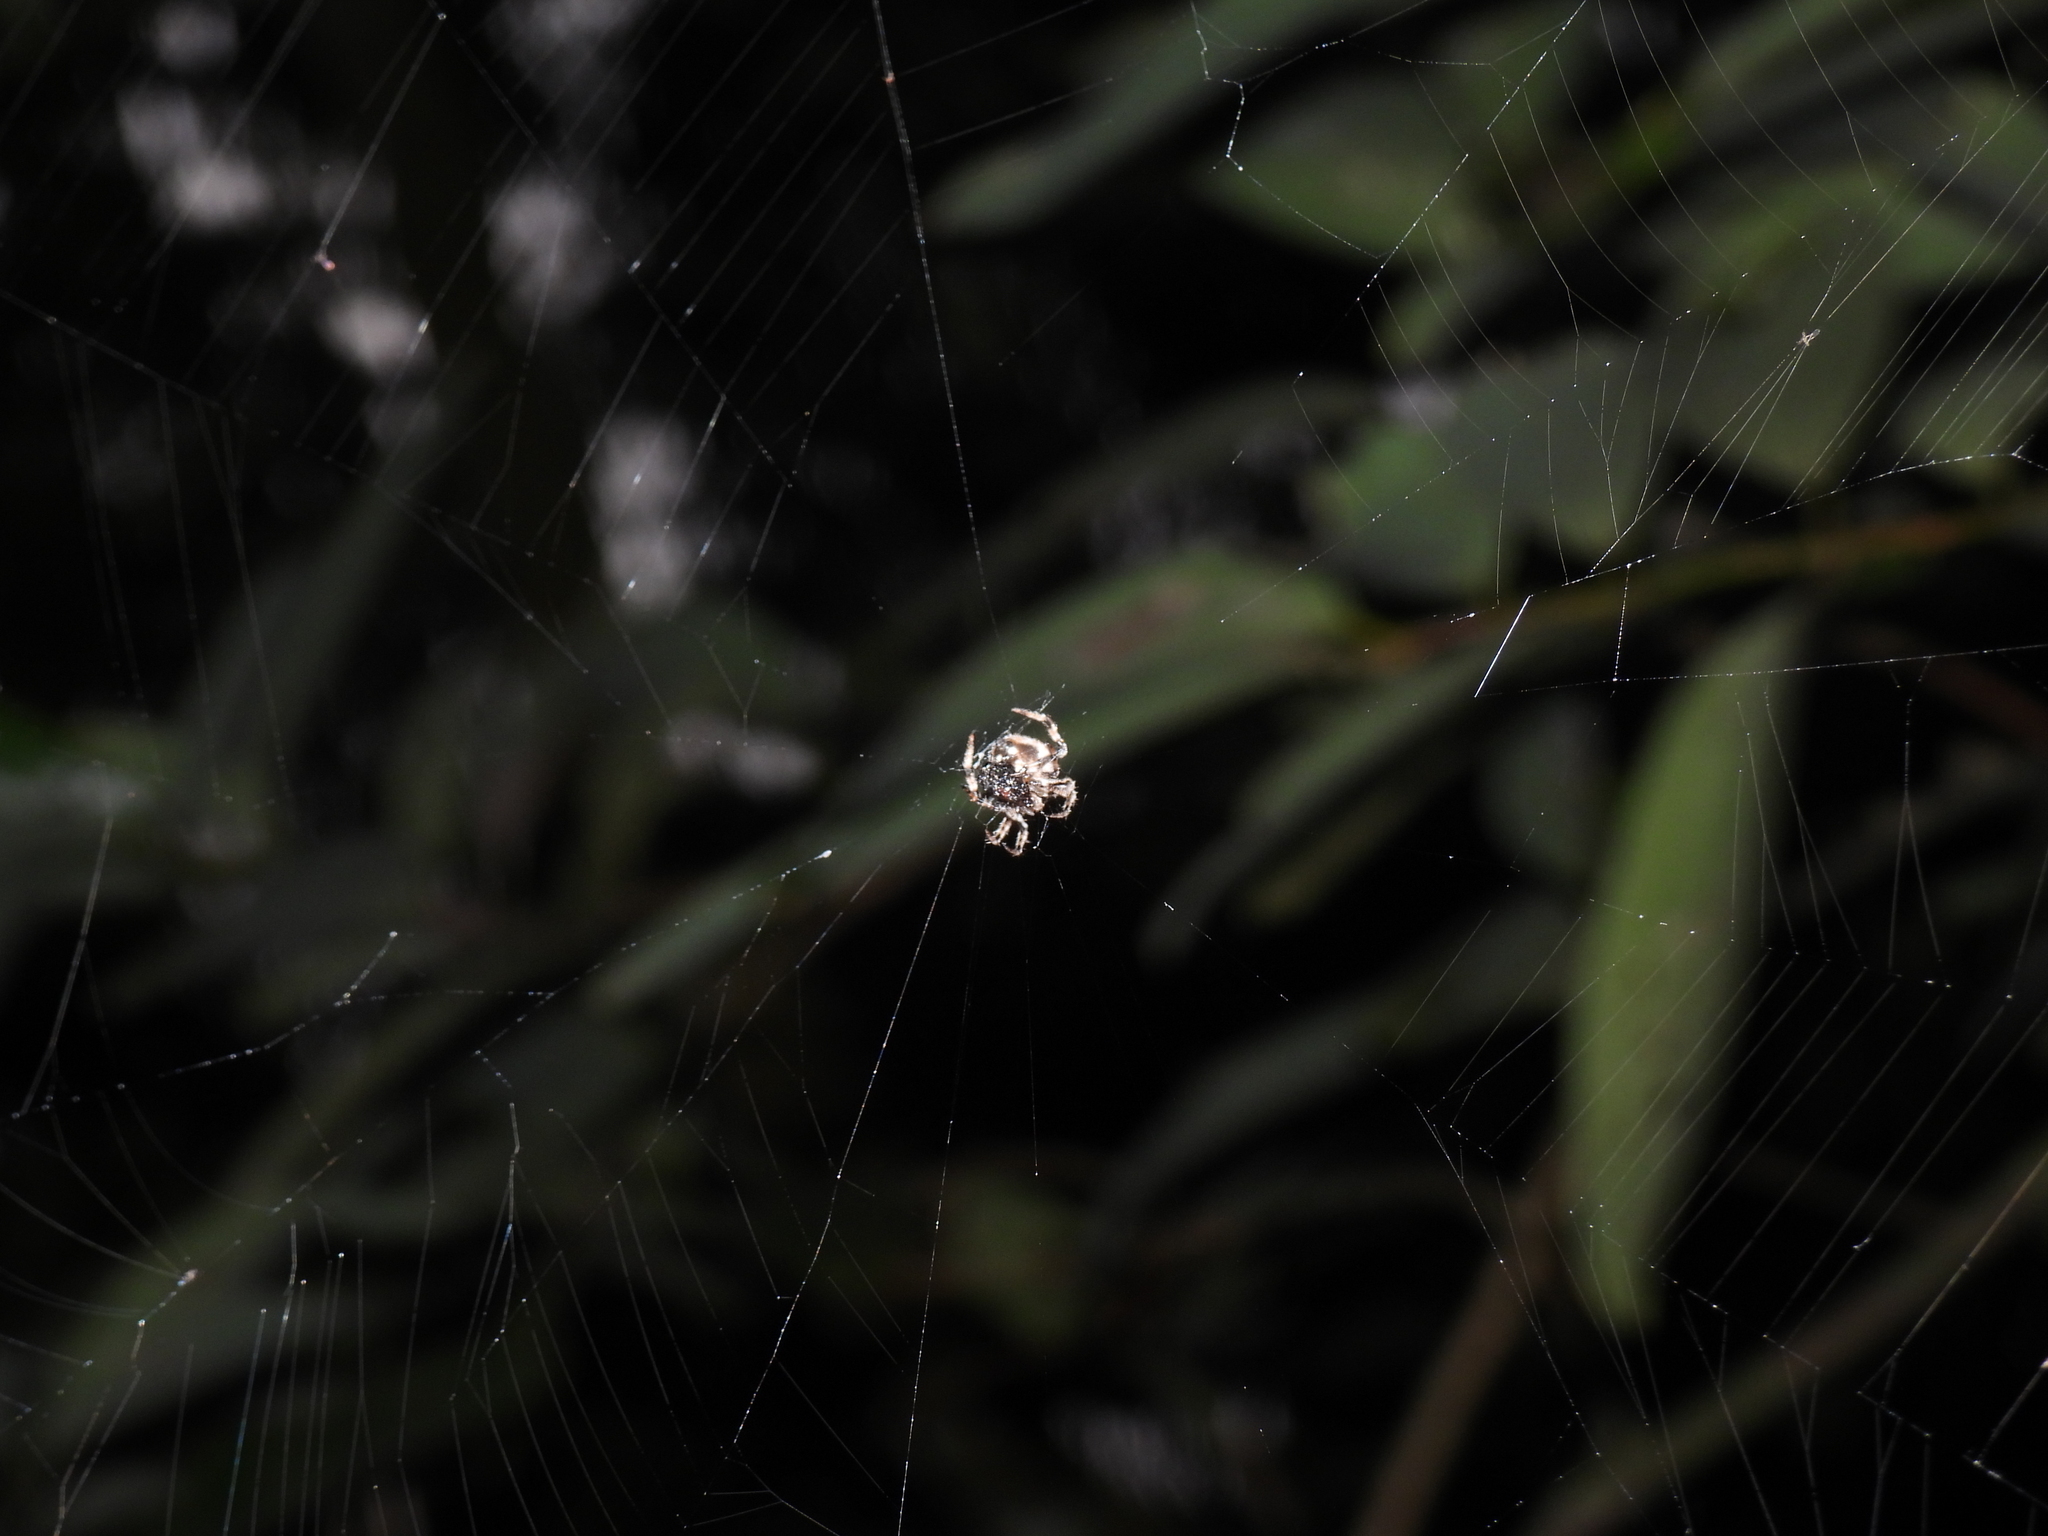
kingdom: Animalia
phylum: Arthropoda
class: Arachnida
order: Araneae
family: Araneidae
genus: Eriovixia
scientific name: Eriovixia laglaizei
